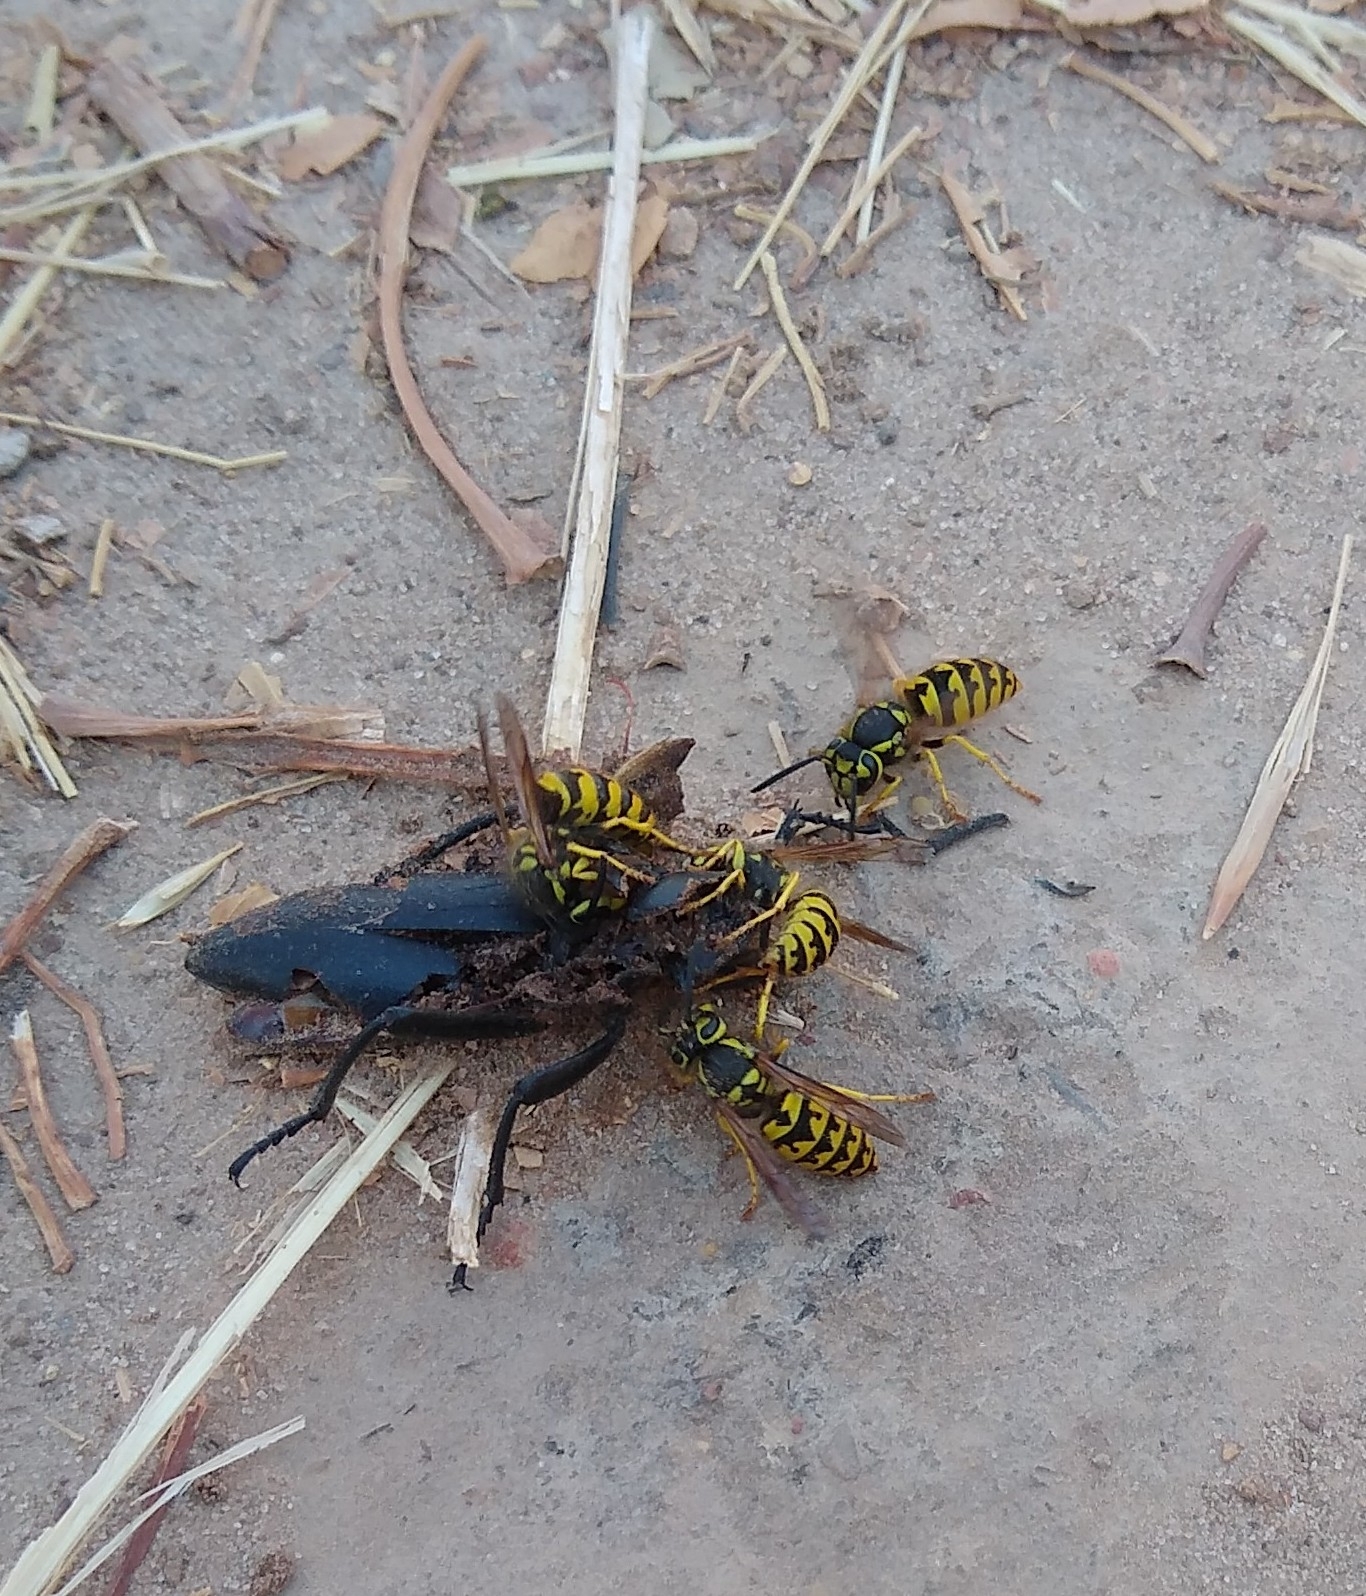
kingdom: Animalia
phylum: Arthropoda
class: Insecta
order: Hymenoptera
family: Vespidae
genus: Vespula
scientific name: Vespula pensylvanica
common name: Western yellowjacket
